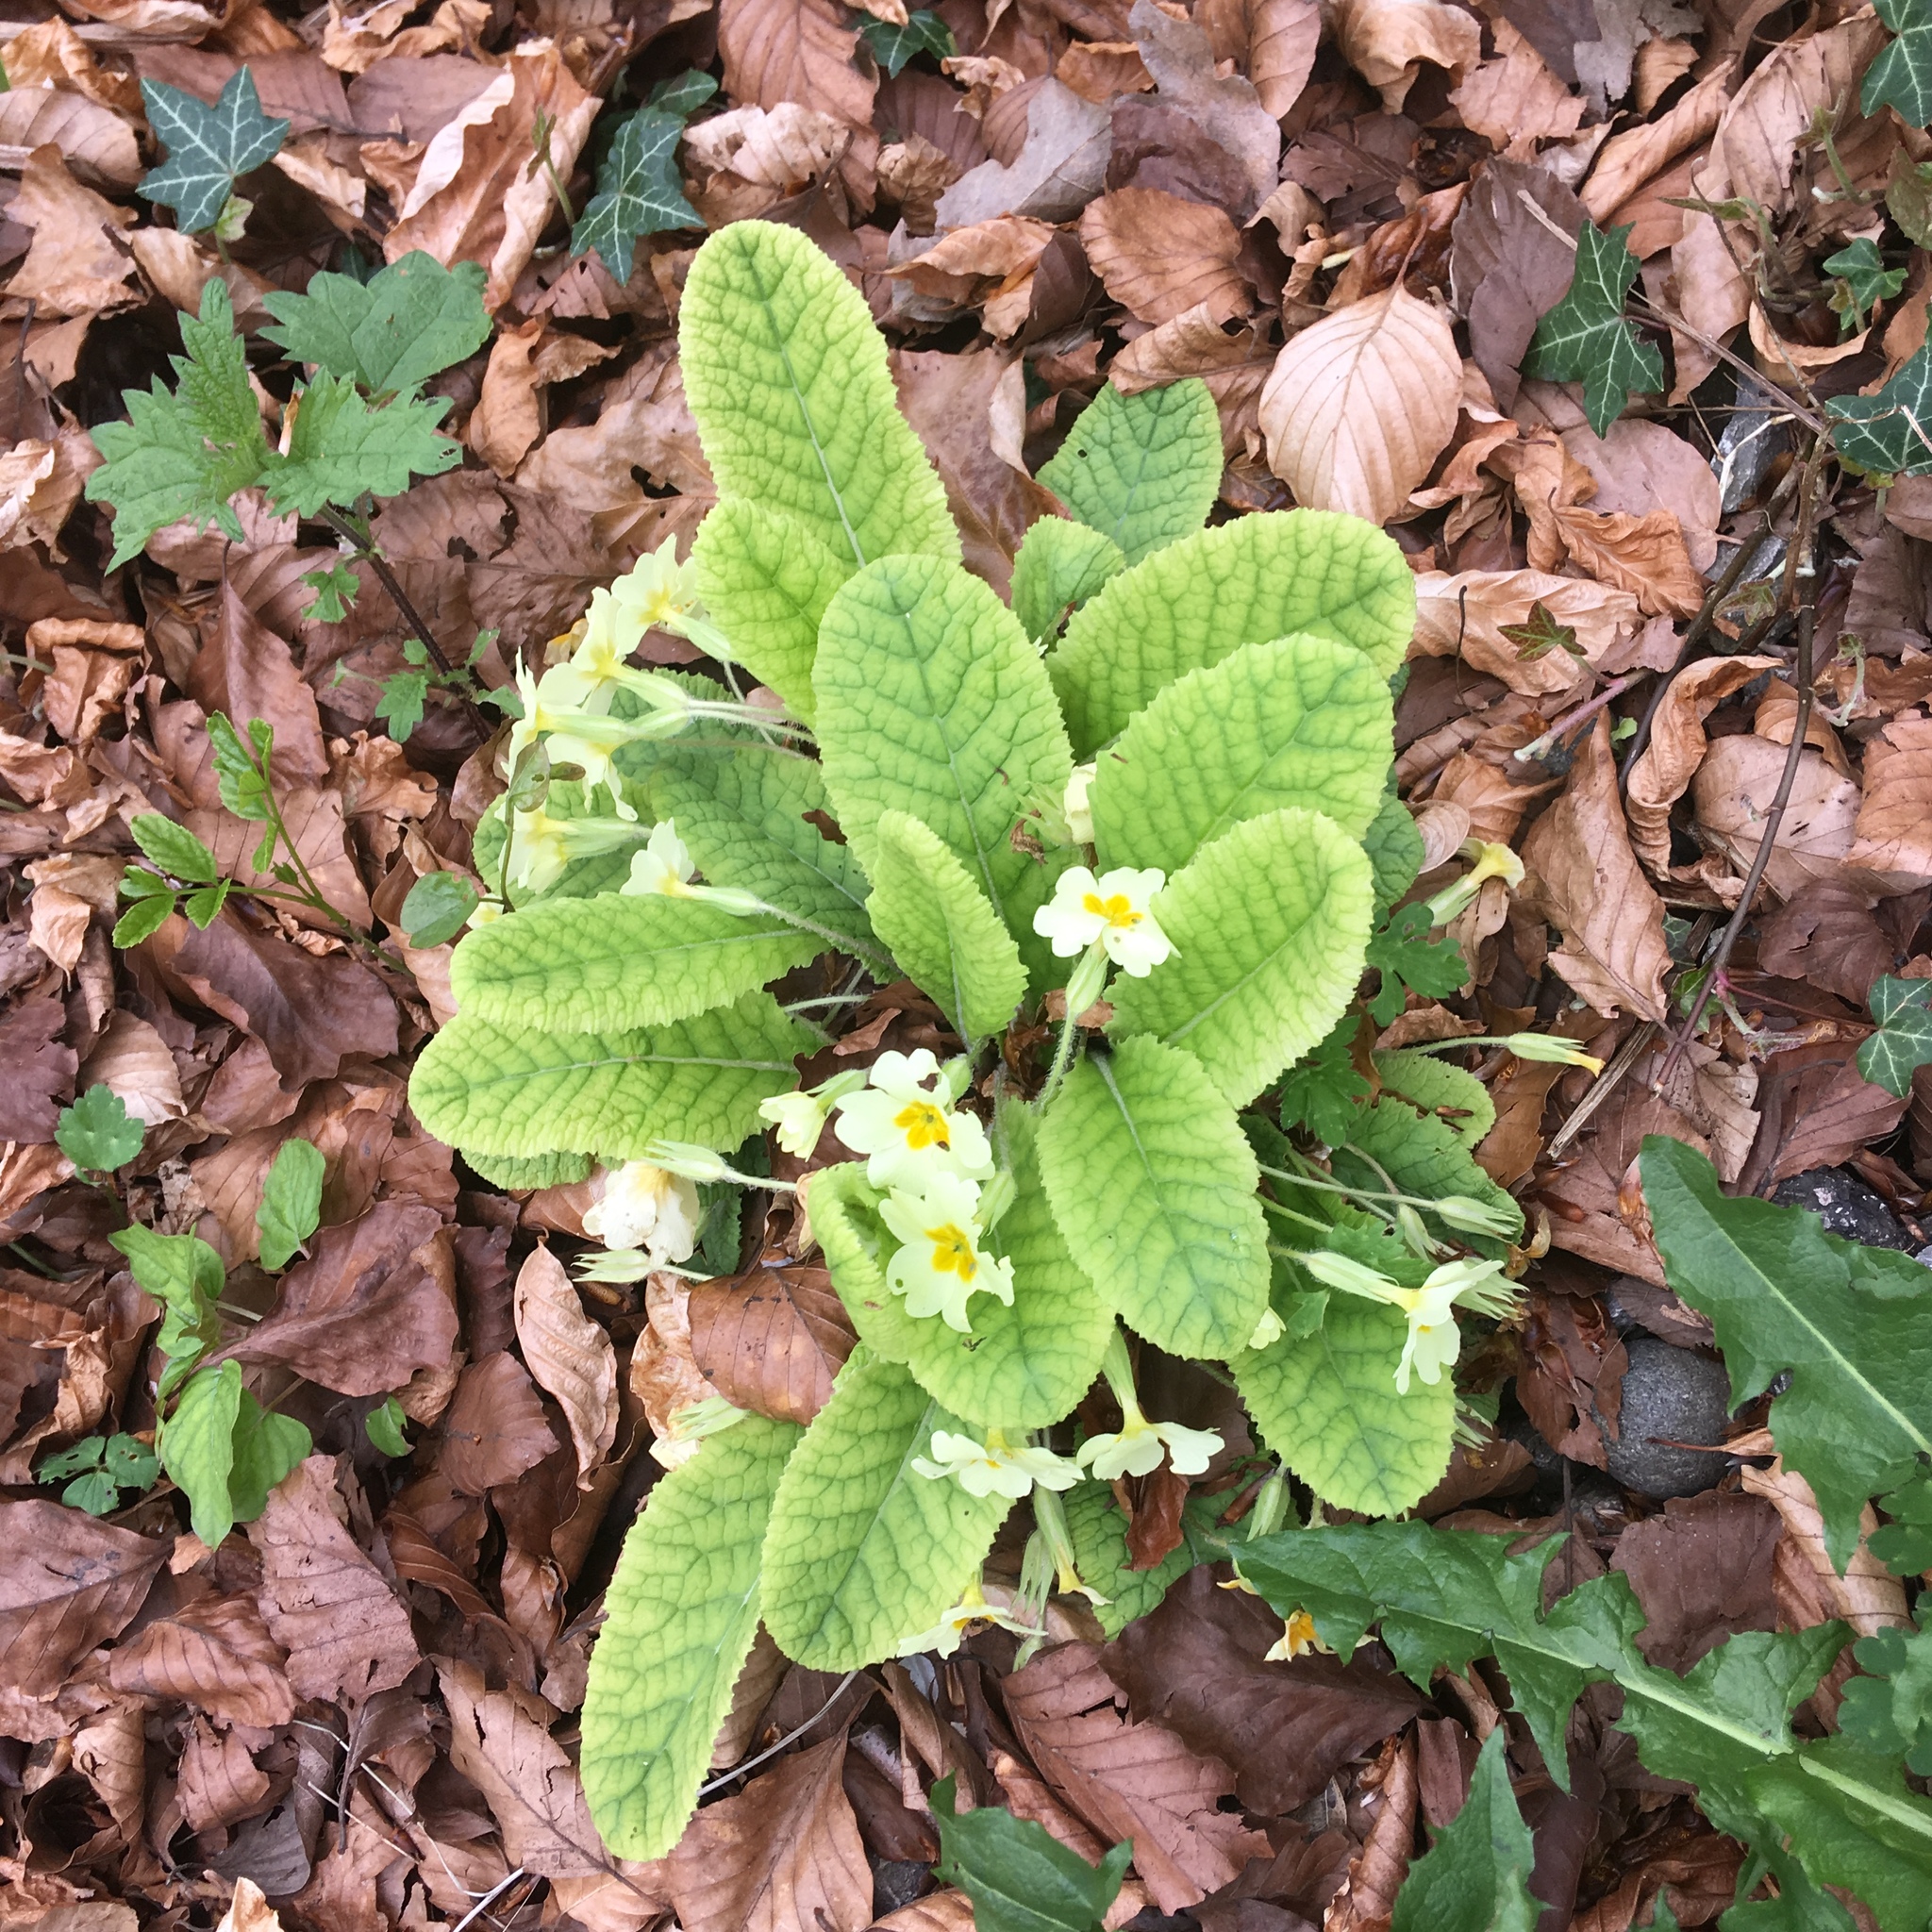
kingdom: Plantae
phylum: Tracheophyta
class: Magnoliopsida
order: Ericales
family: Primulaceae
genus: Primula
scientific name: Primula vulgaris
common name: Primrose
